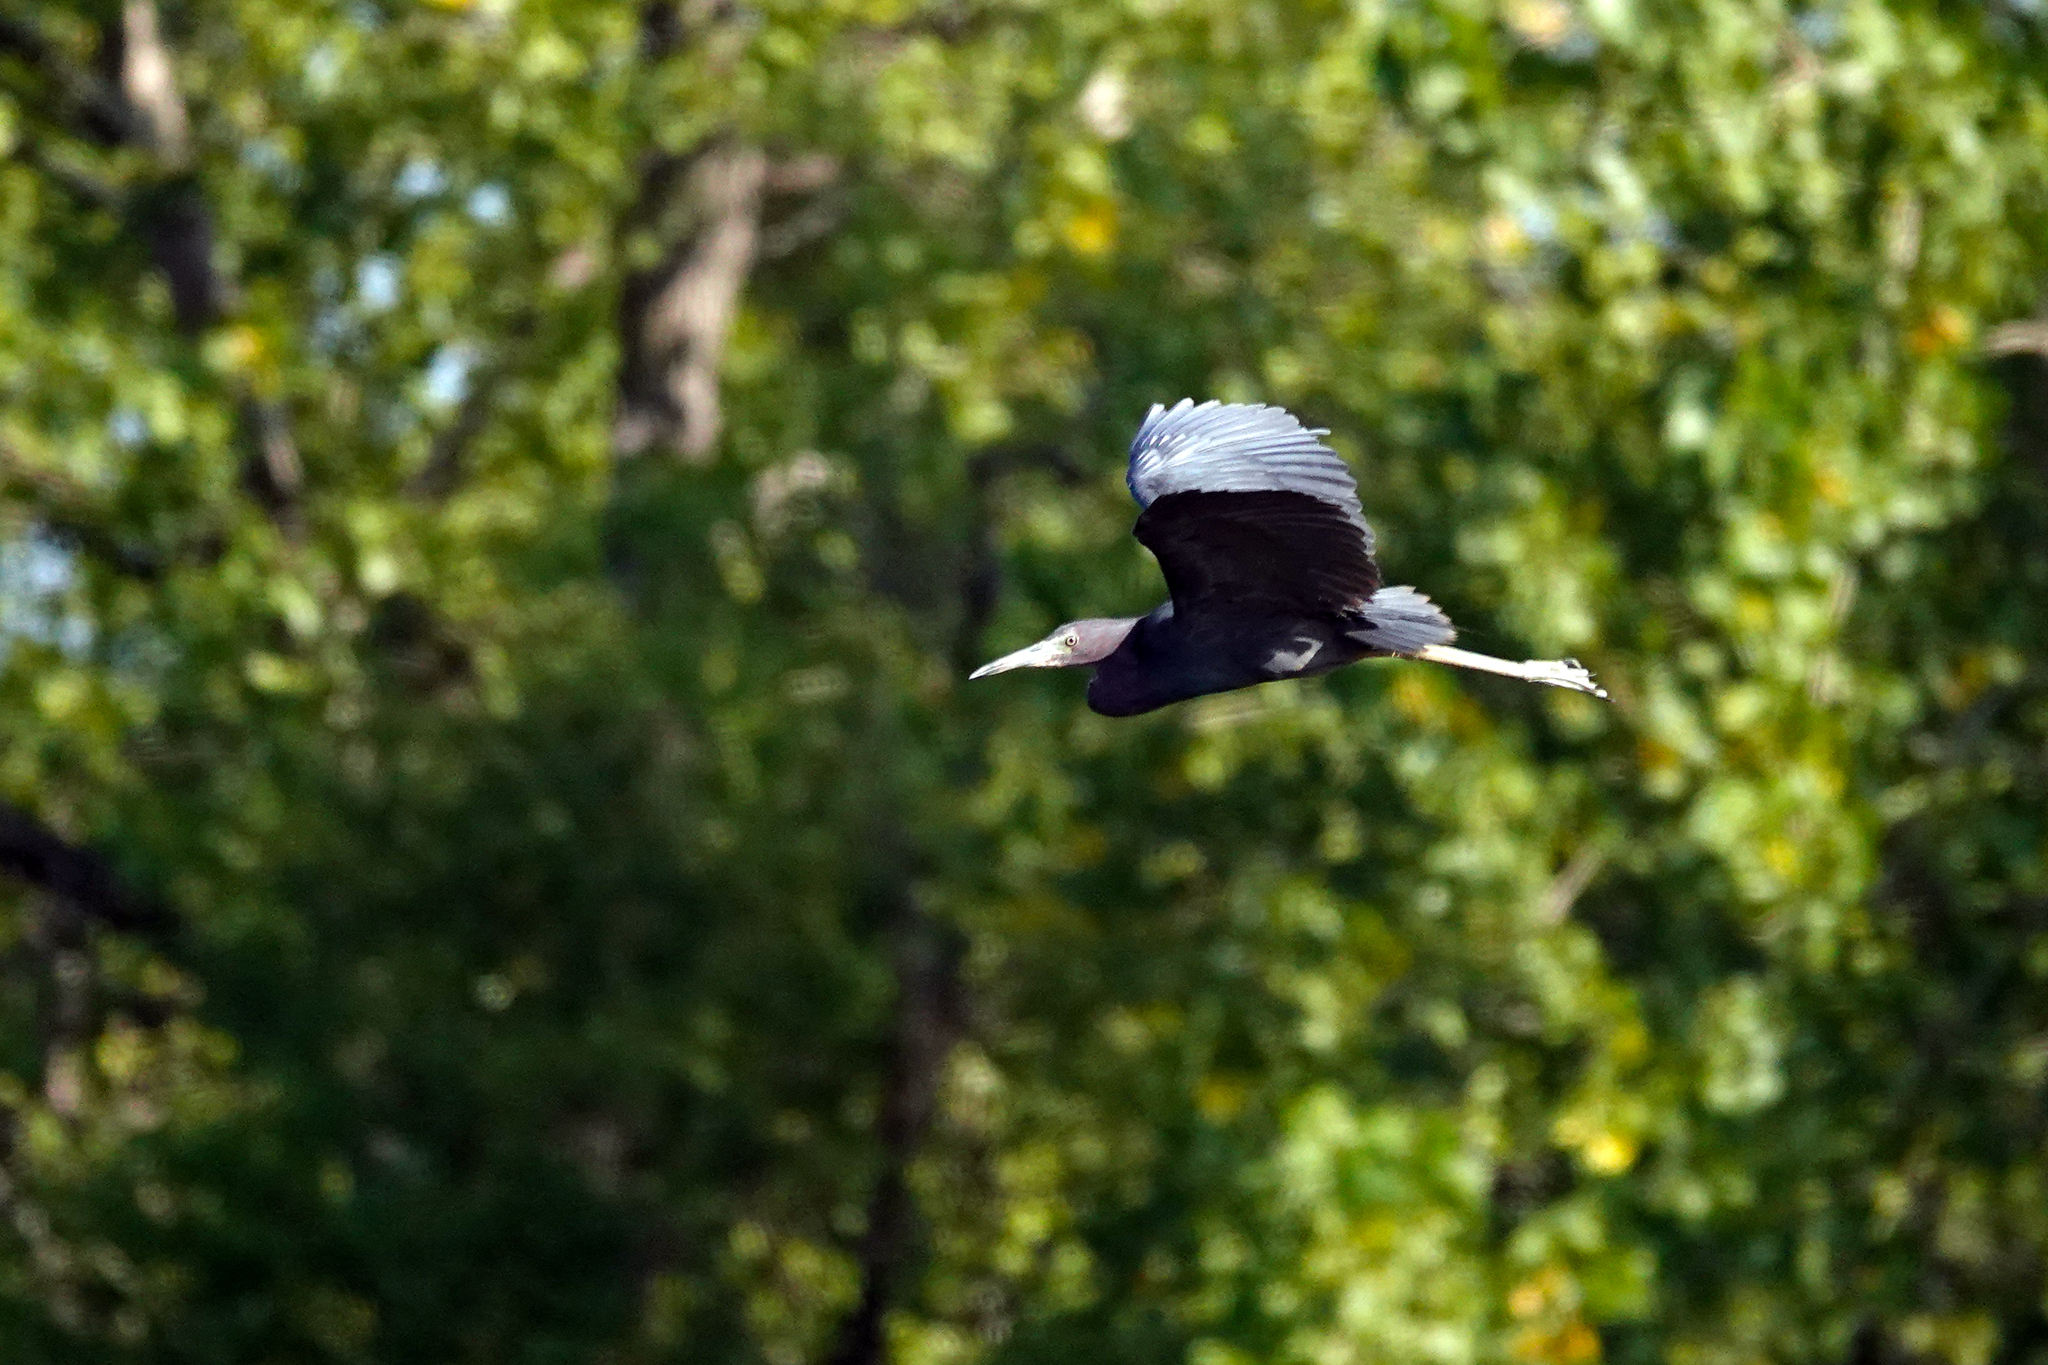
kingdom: Animalia
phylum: Chordata
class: Aves
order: Pelecaniformes
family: Ardeidae
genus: Egretta
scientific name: Egretta caerulea
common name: Little blue heron
